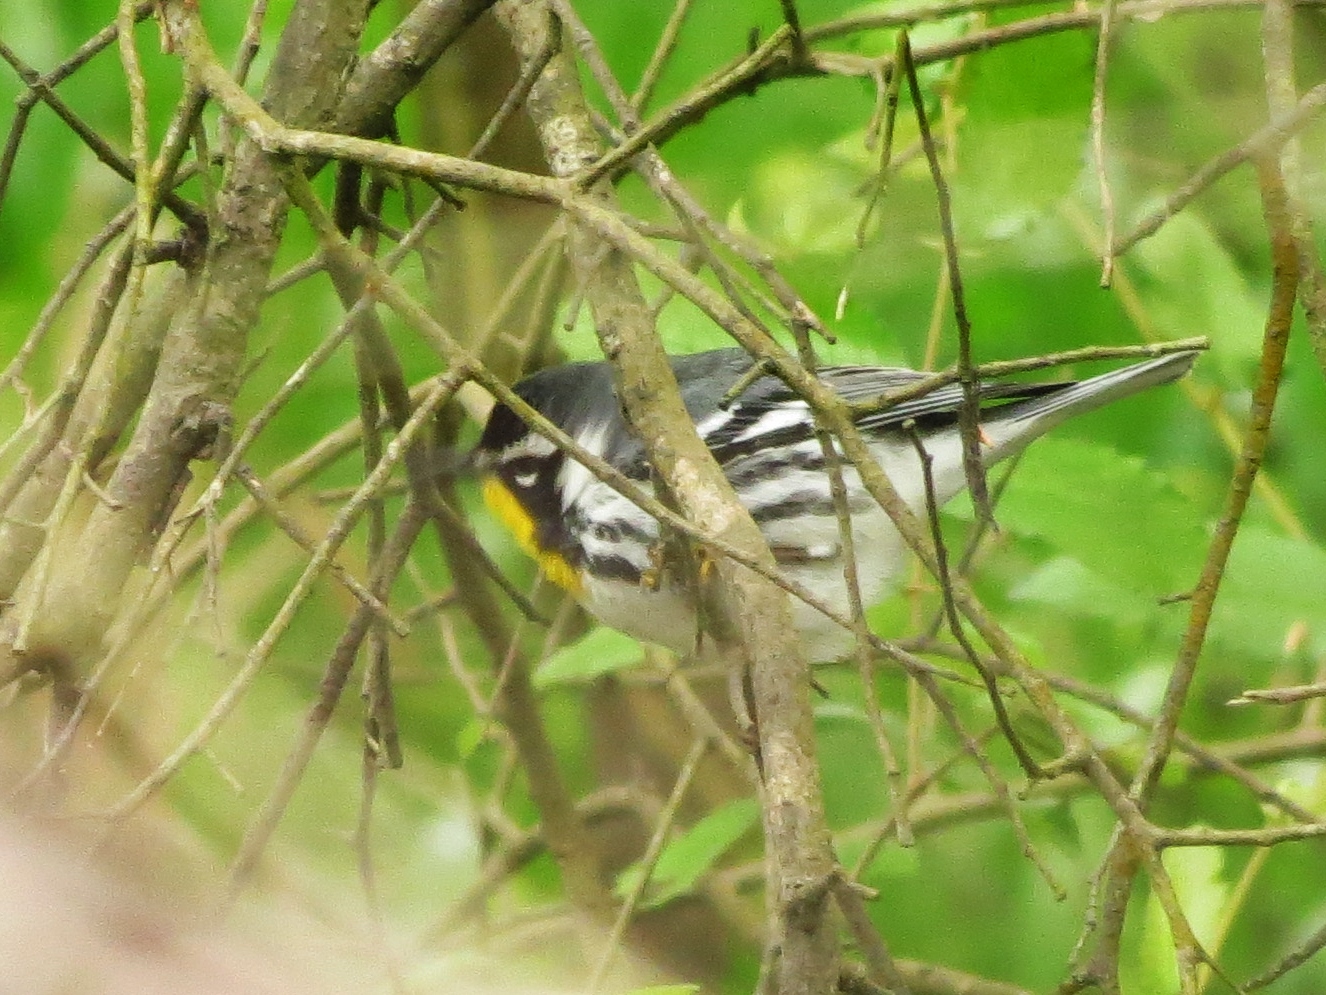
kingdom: Animalia
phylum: Chordata
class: Aves
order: Passeriformes
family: Parulidae
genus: Setophaga
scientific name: Setophaga dominica
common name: Yellow-throated warbler
